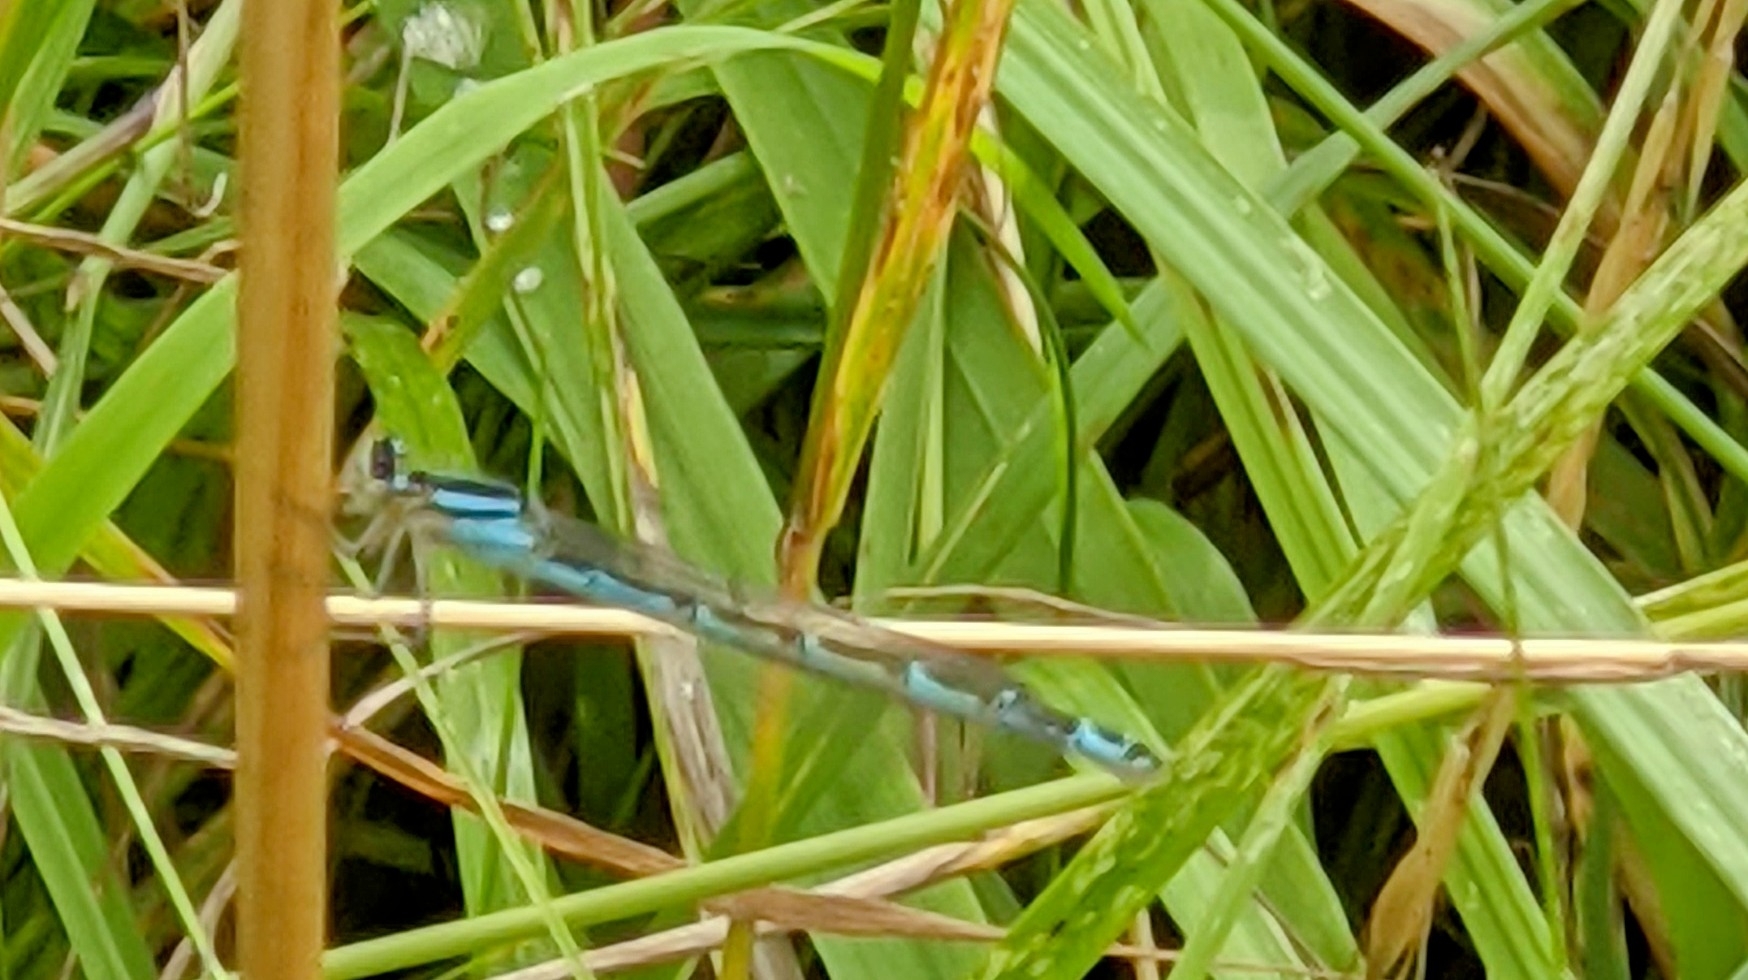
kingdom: Animalia
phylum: Arthropoda
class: Insecta
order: Odonata
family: Coenagrionidae
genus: Enallagma
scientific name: Enallagma cyathigerum
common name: Common blue damselfly
